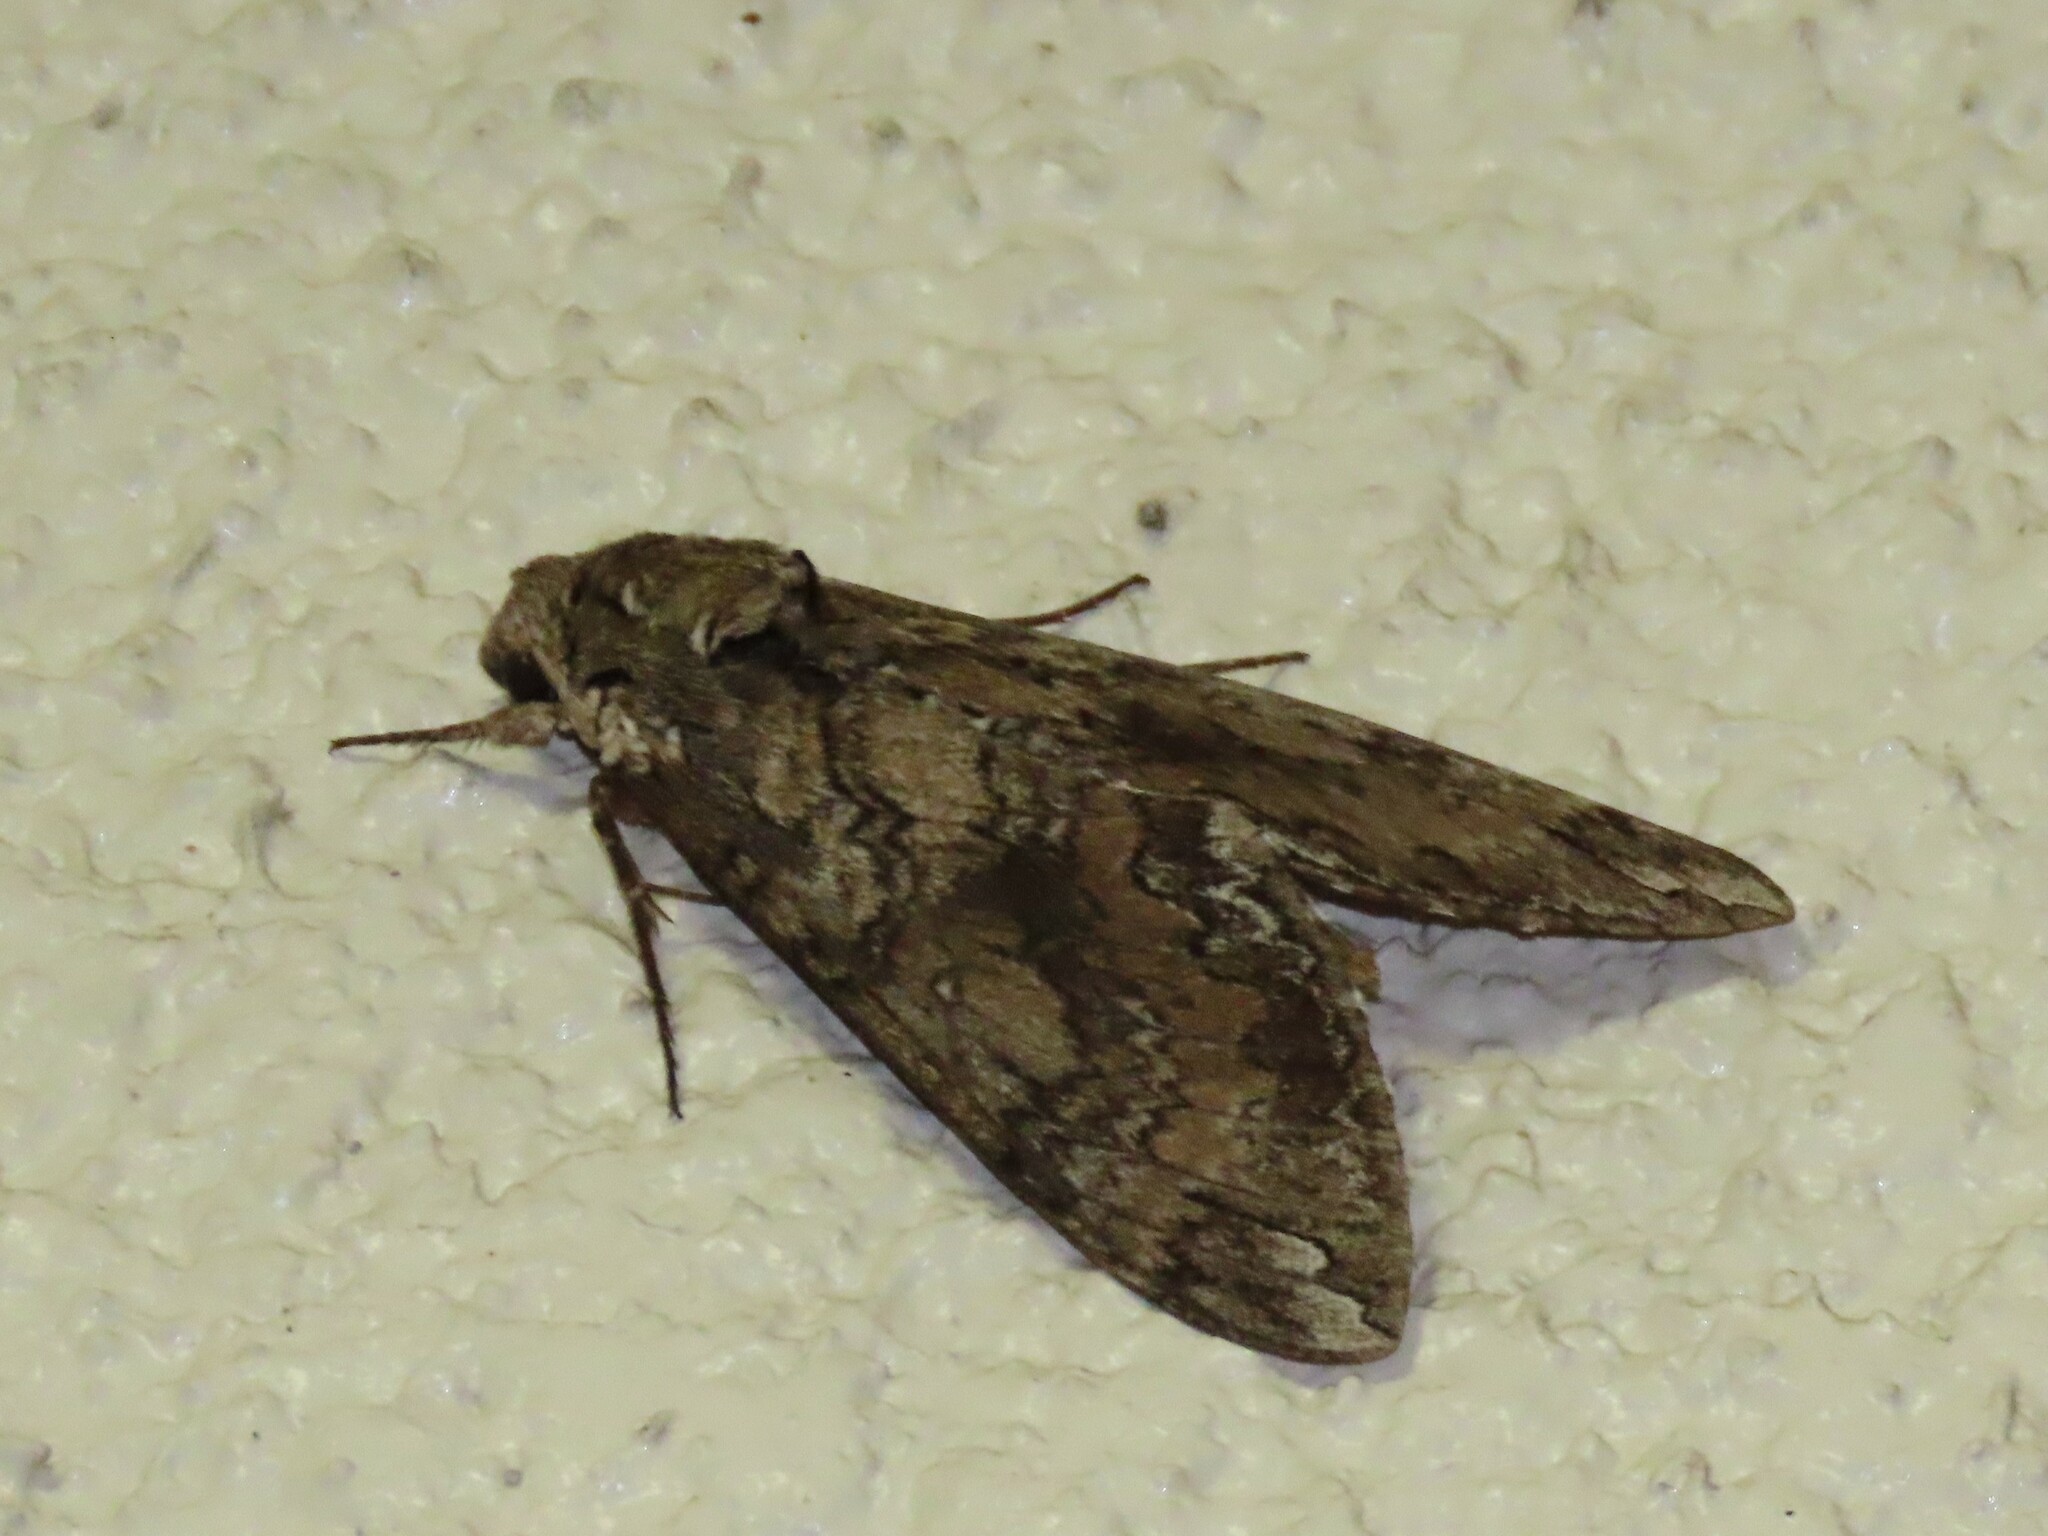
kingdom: Animalia
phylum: Arthropoda
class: Insecta
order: Lepidoptera
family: Sphingidae
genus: Manduca
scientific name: Manduca sexta
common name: Carolina sphinx
